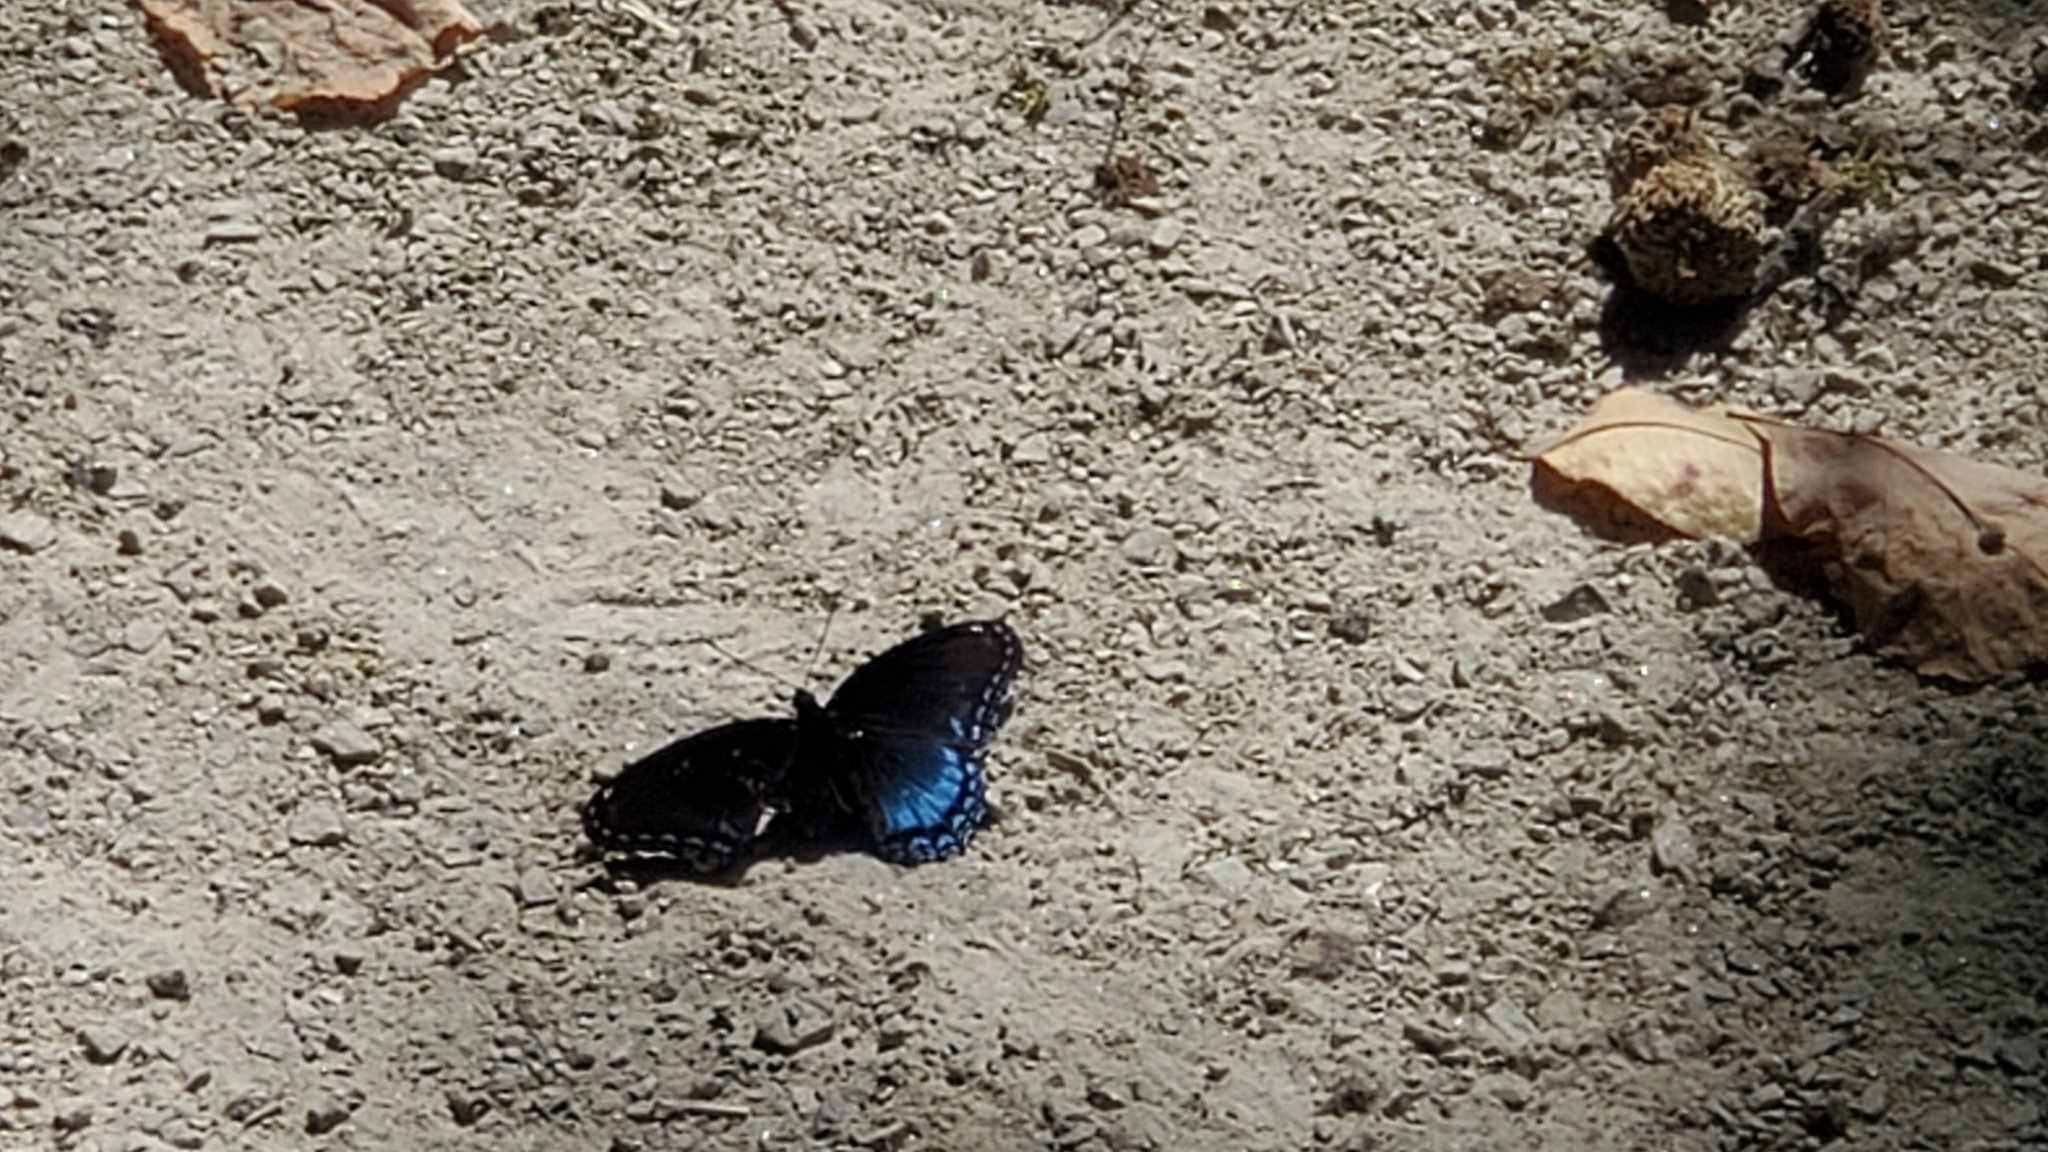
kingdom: Animalia
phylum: Arthropoda
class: Insecta
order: Lepidoptera
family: Nymphalidae
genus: Limenitis
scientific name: Limenitis astyanax
